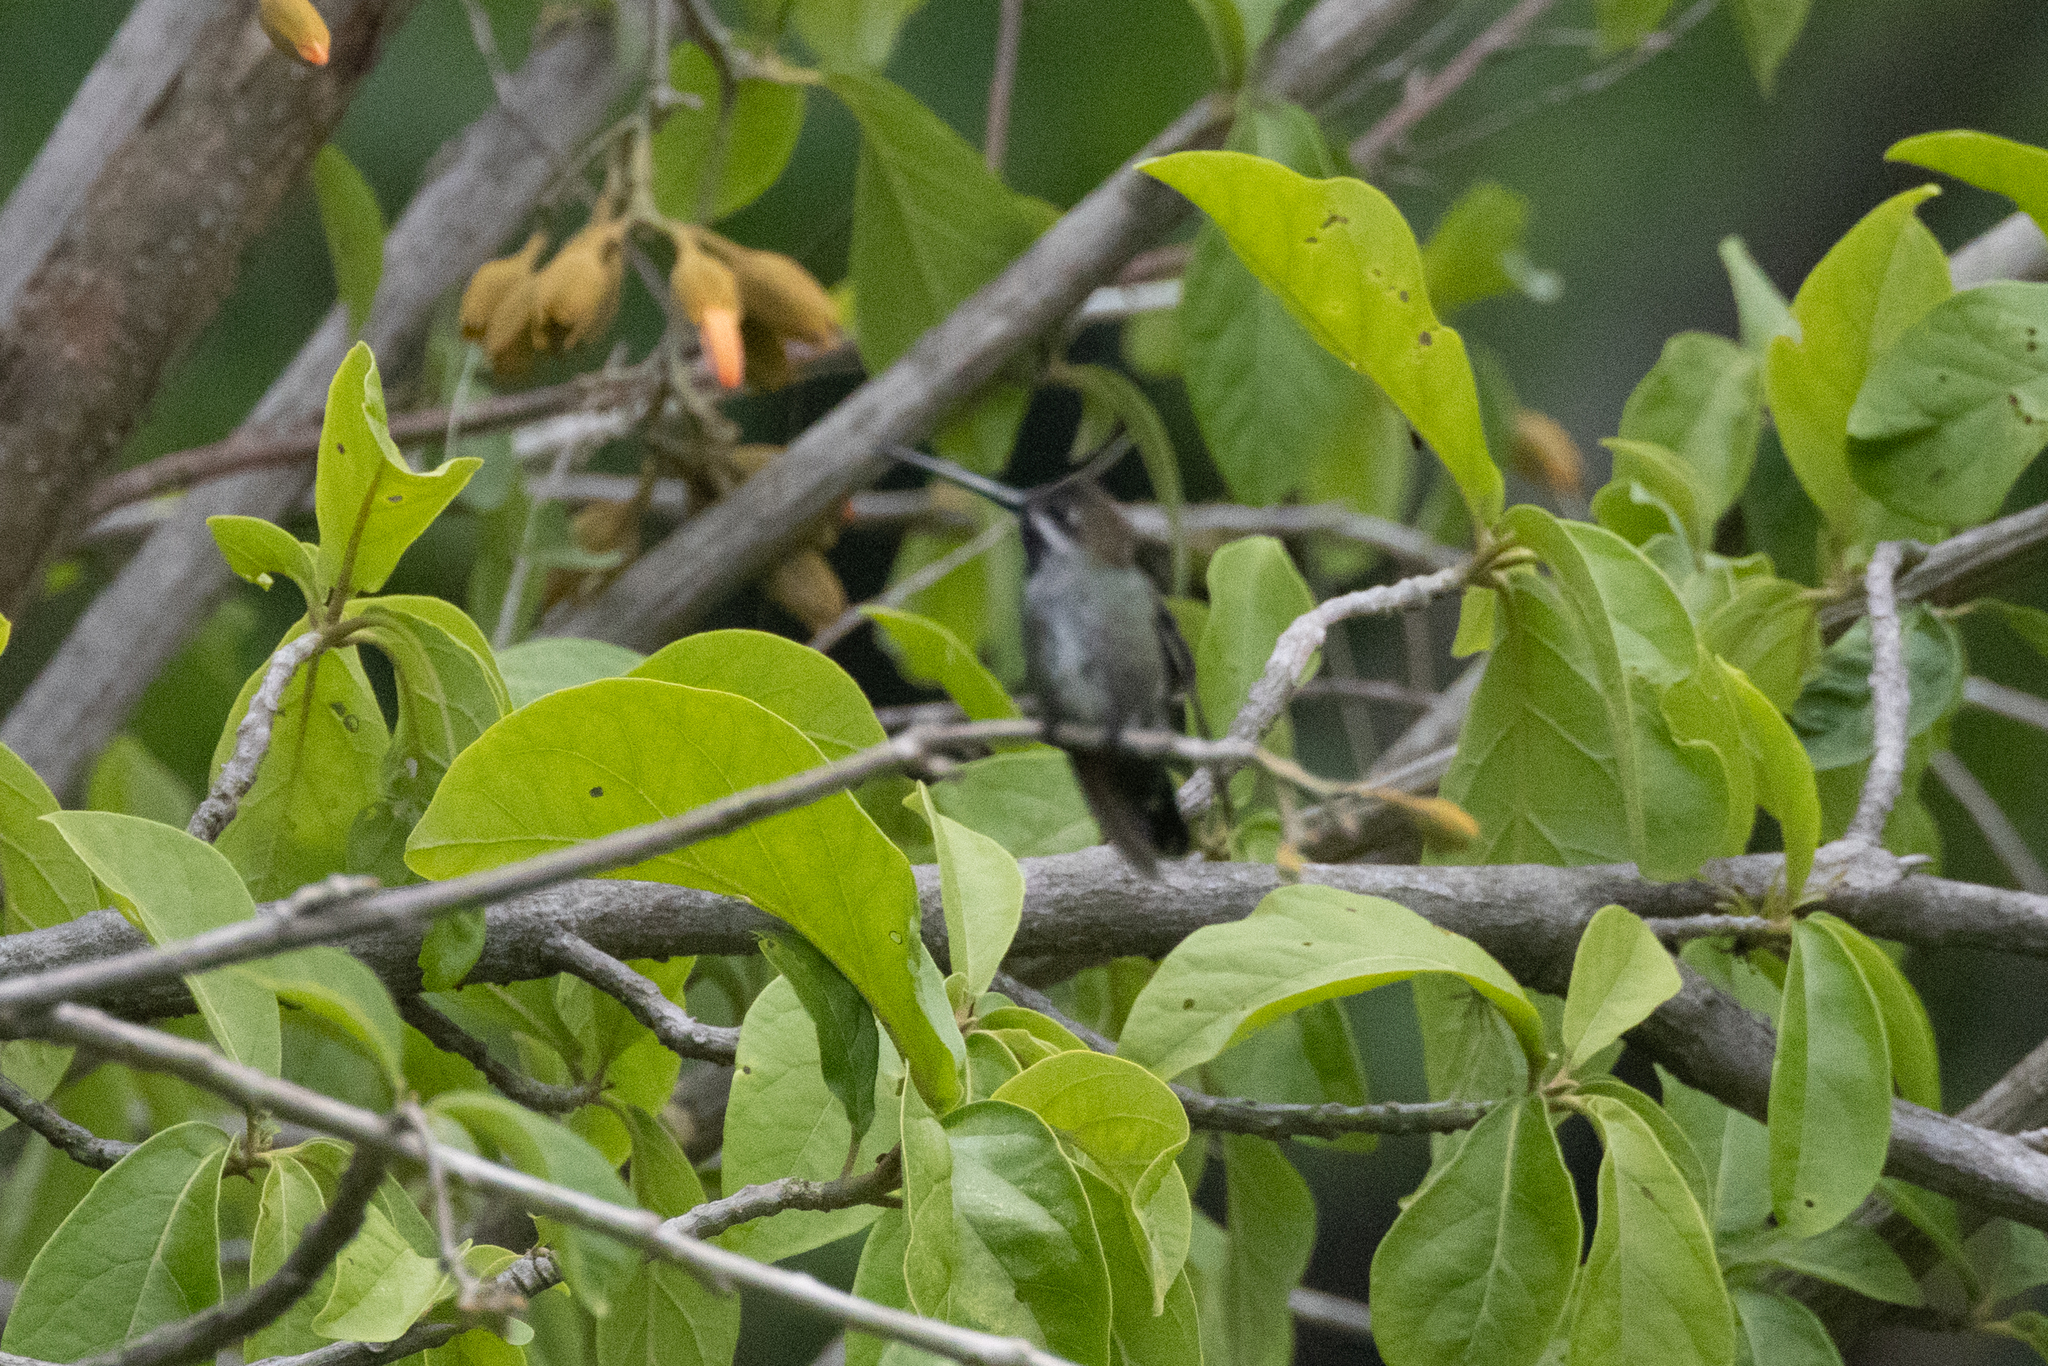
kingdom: Animalia
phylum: Chordata
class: Aves
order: Apodiformes
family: Trochilidae
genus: Heliomaster
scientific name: Heliomaster longirostris
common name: Long-billed starthroat
